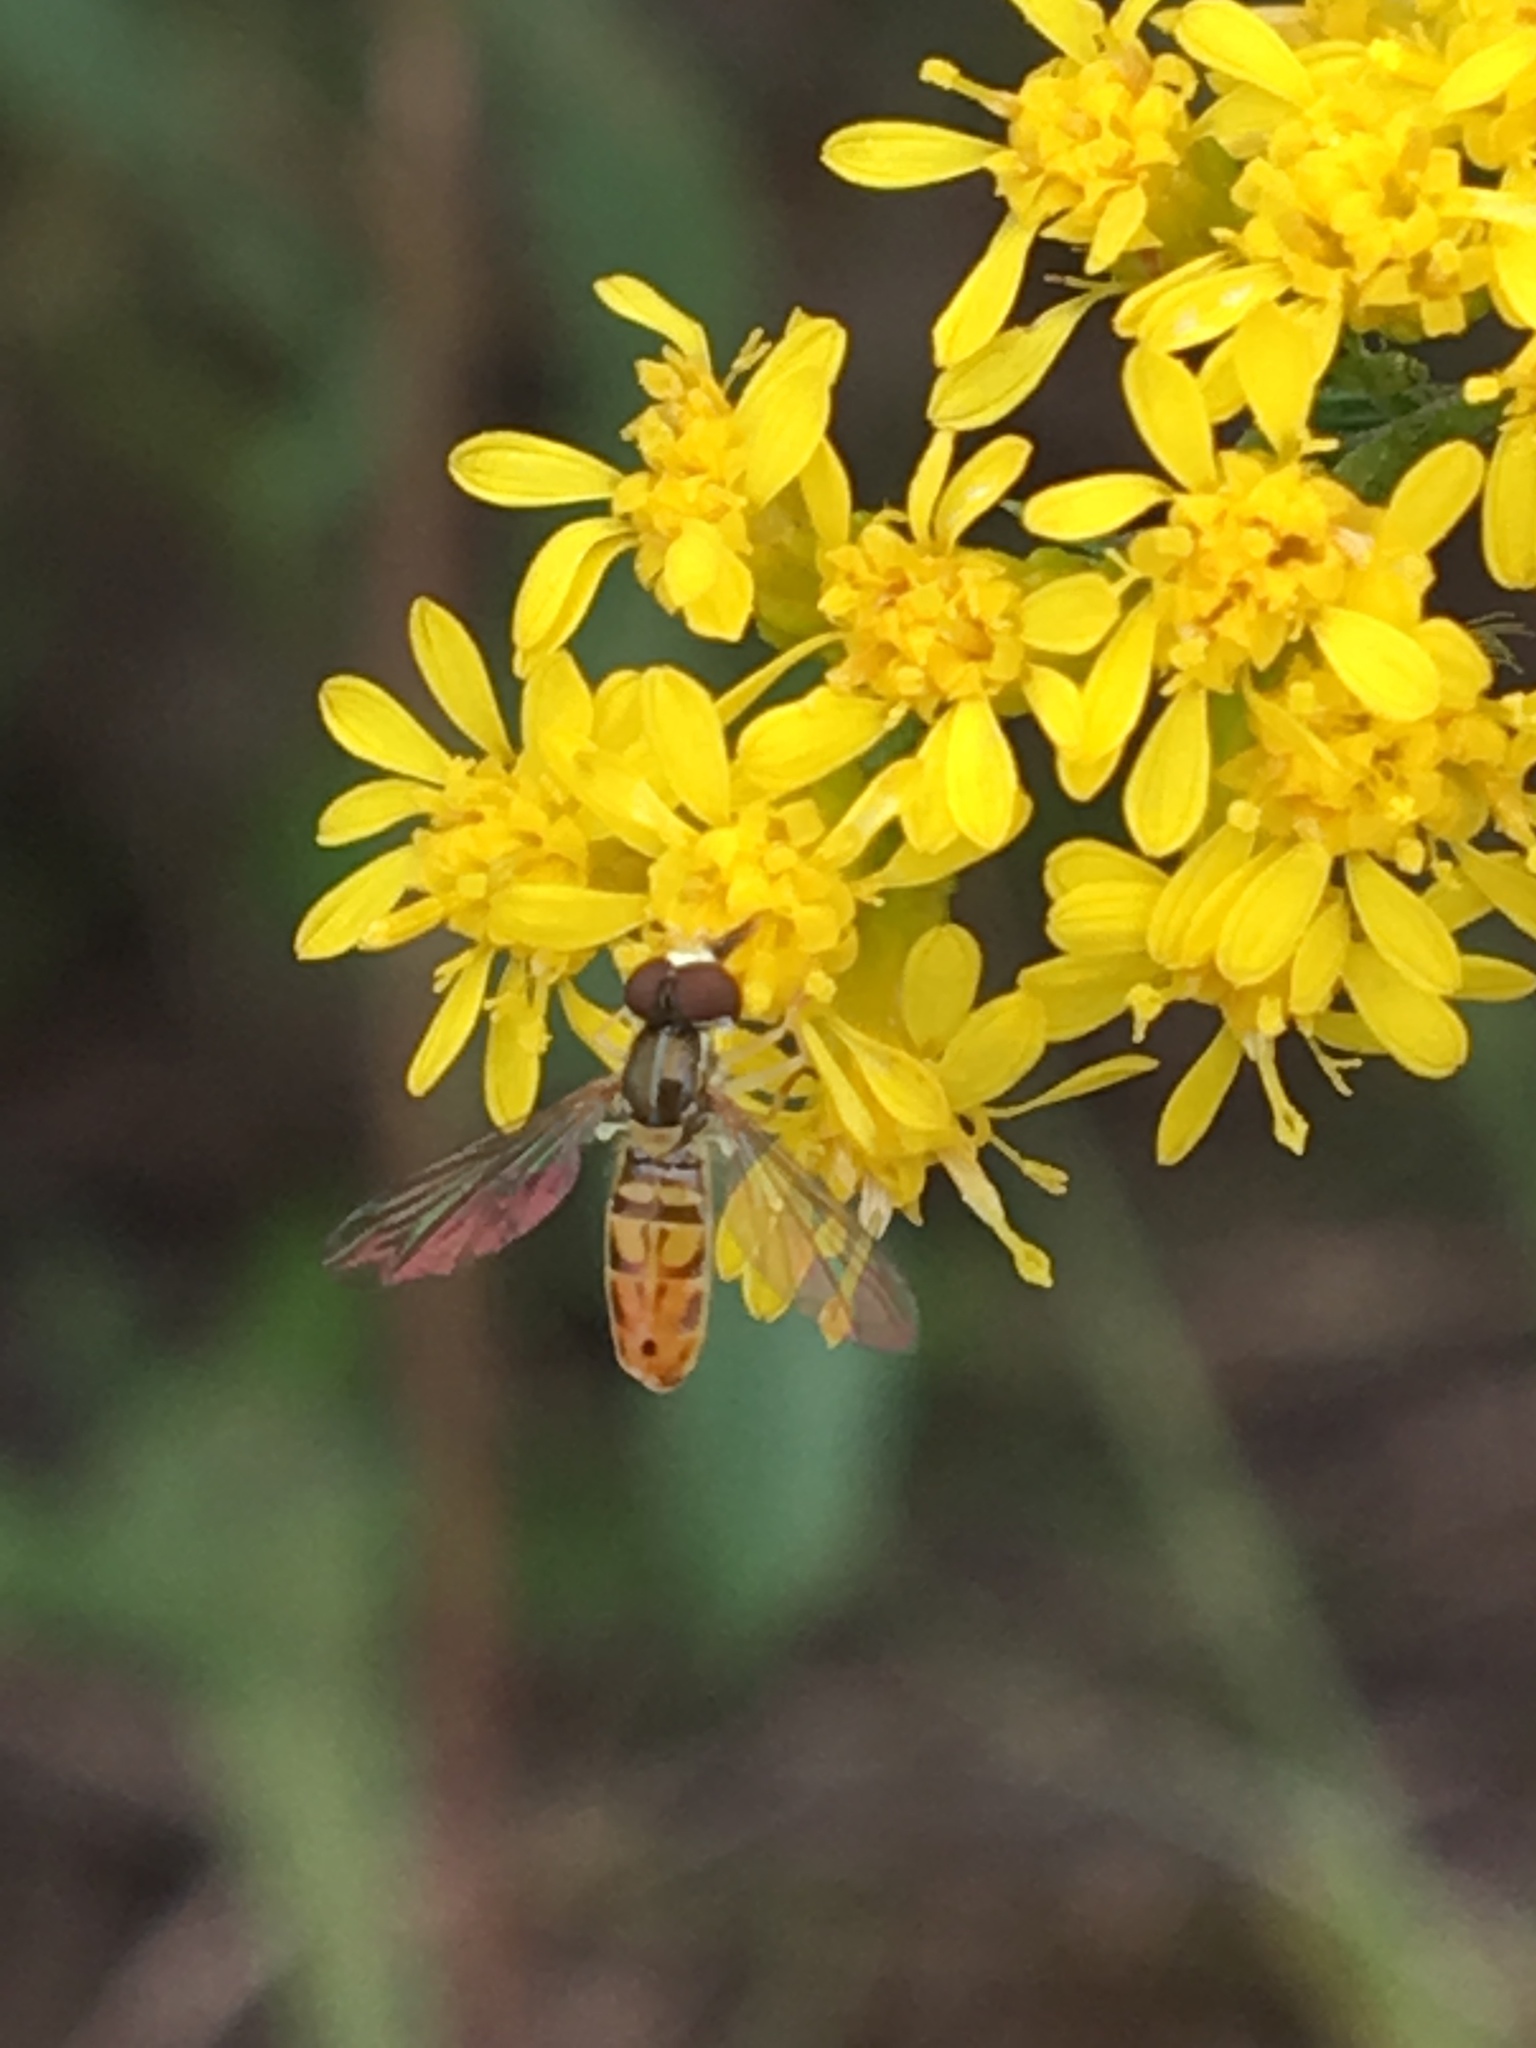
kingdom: Animalia
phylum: Arthropoda
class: Insecta
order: Diptera
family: Syrphidae
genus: Toxomerus
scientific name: Toxomerus marginatus
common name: Syrphid fly
